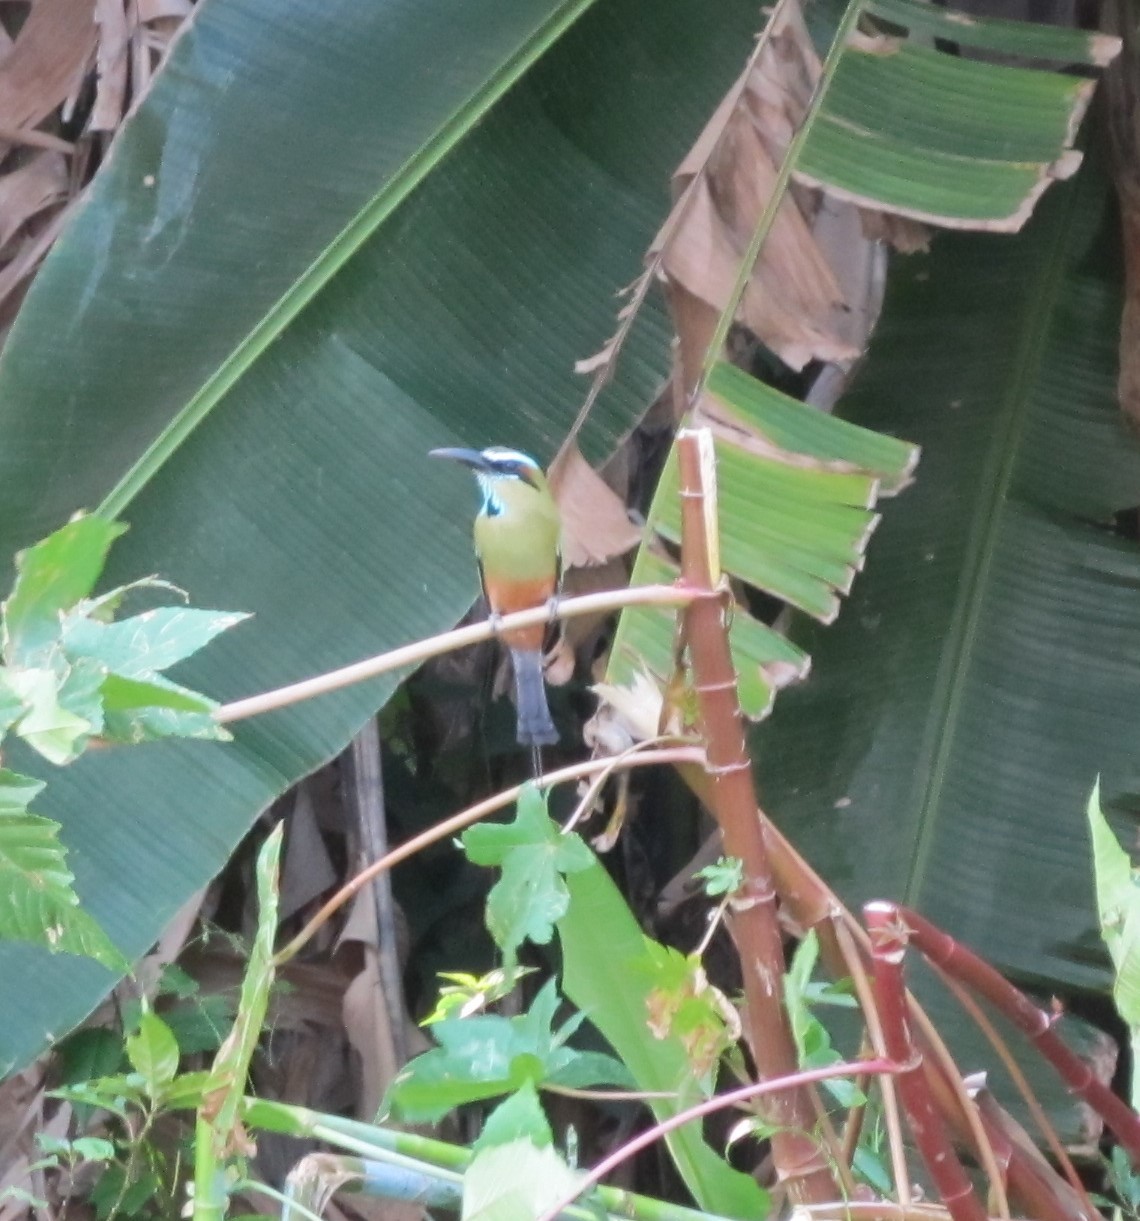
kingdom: Animalia
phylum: Chordata
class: Aves
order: Coraciiformes
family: Momotidae
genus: Eumomota
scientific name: Eumomota superciliosa
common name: Turquoise-browed motmot
